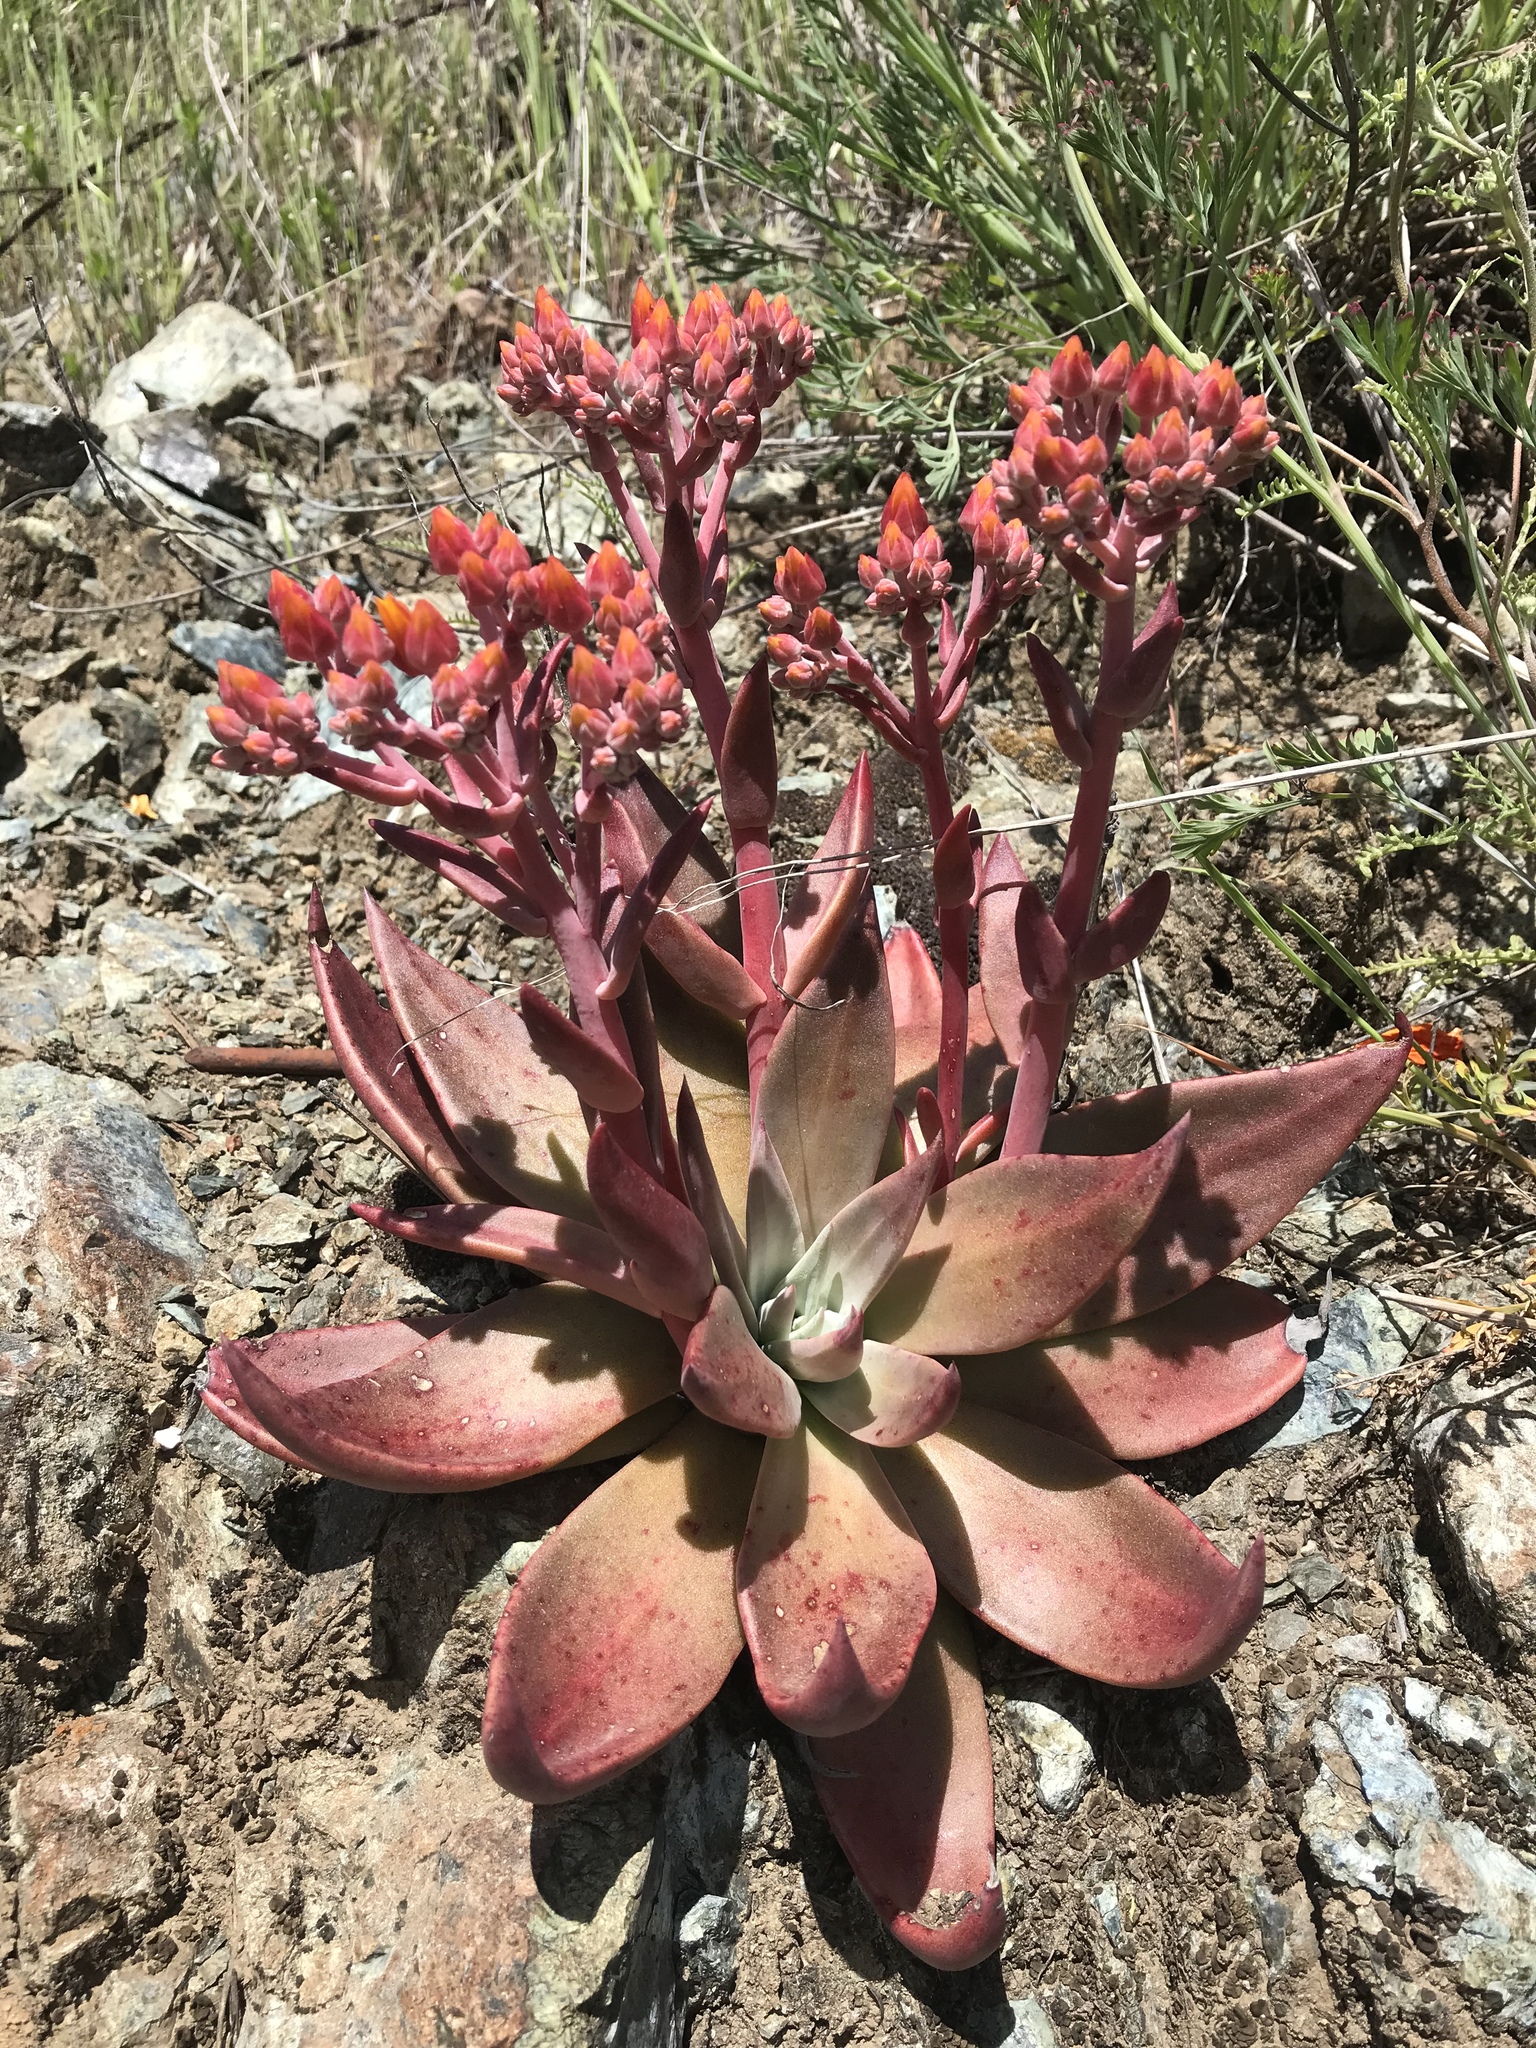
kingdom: Plantae
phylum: Tracheophyta
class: Magnoliopsida
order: Saxifragales
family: Crassulaceae
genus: Dudleya
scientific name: Dudleya cymosa
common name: Canyon dudleya
